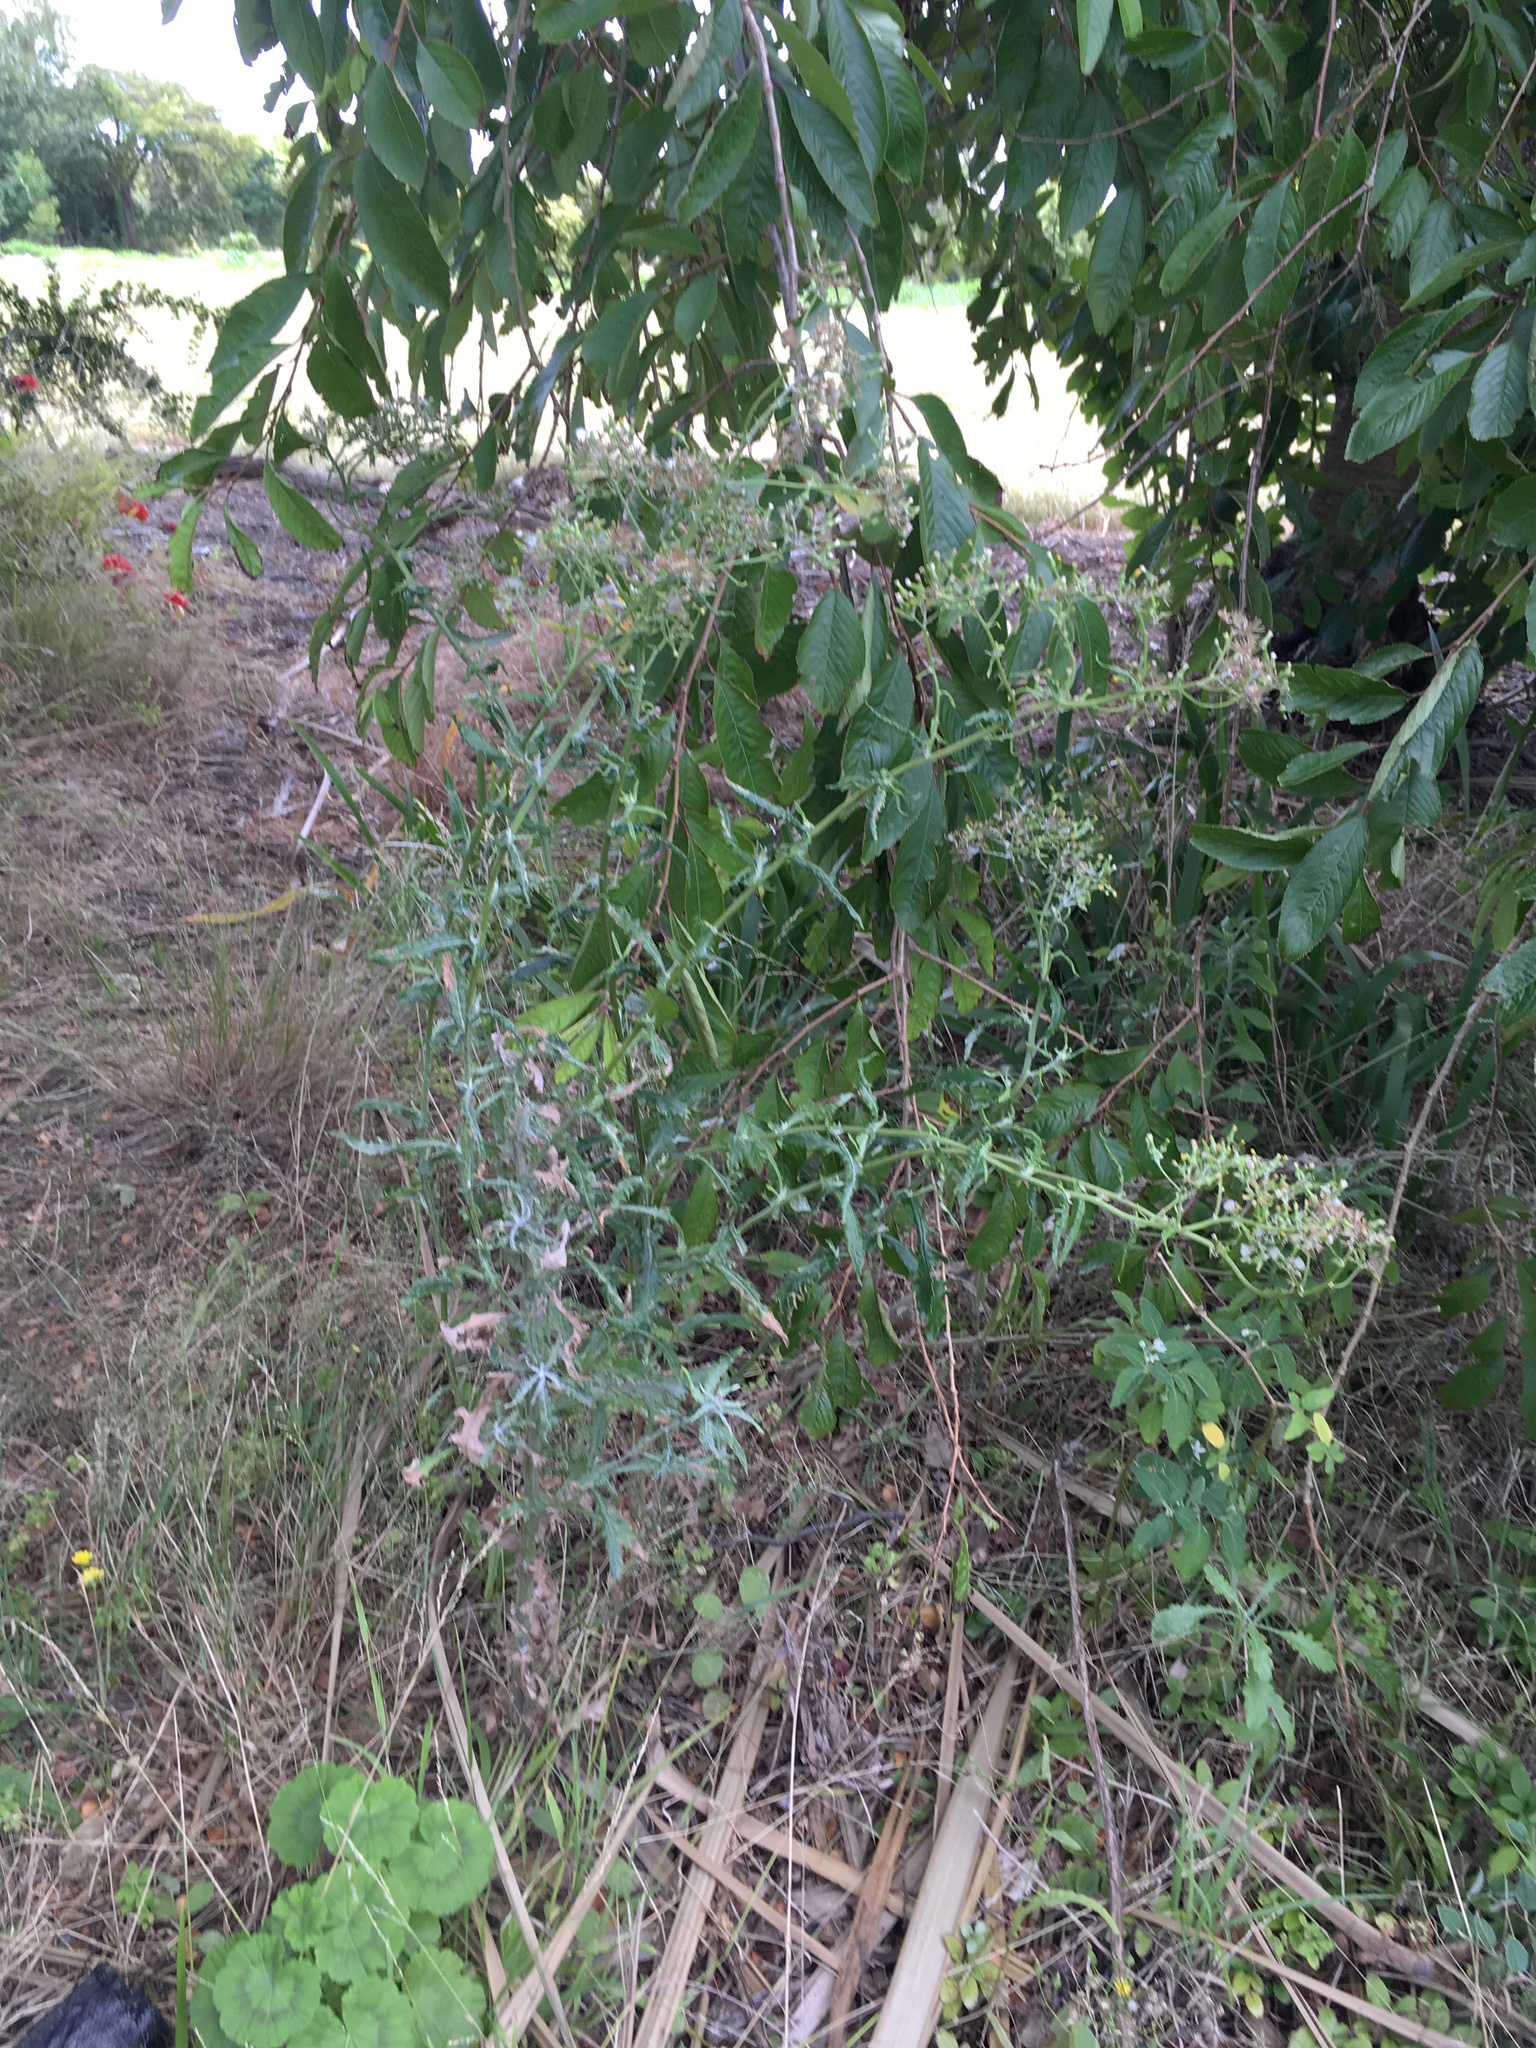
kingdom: Plantae
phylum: Tracheophyta
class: Magnoliopsida
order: Asterales
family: Asteraceae
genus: Senecio
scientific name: Senecio glomeratus
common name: Cutleaf burnweed
